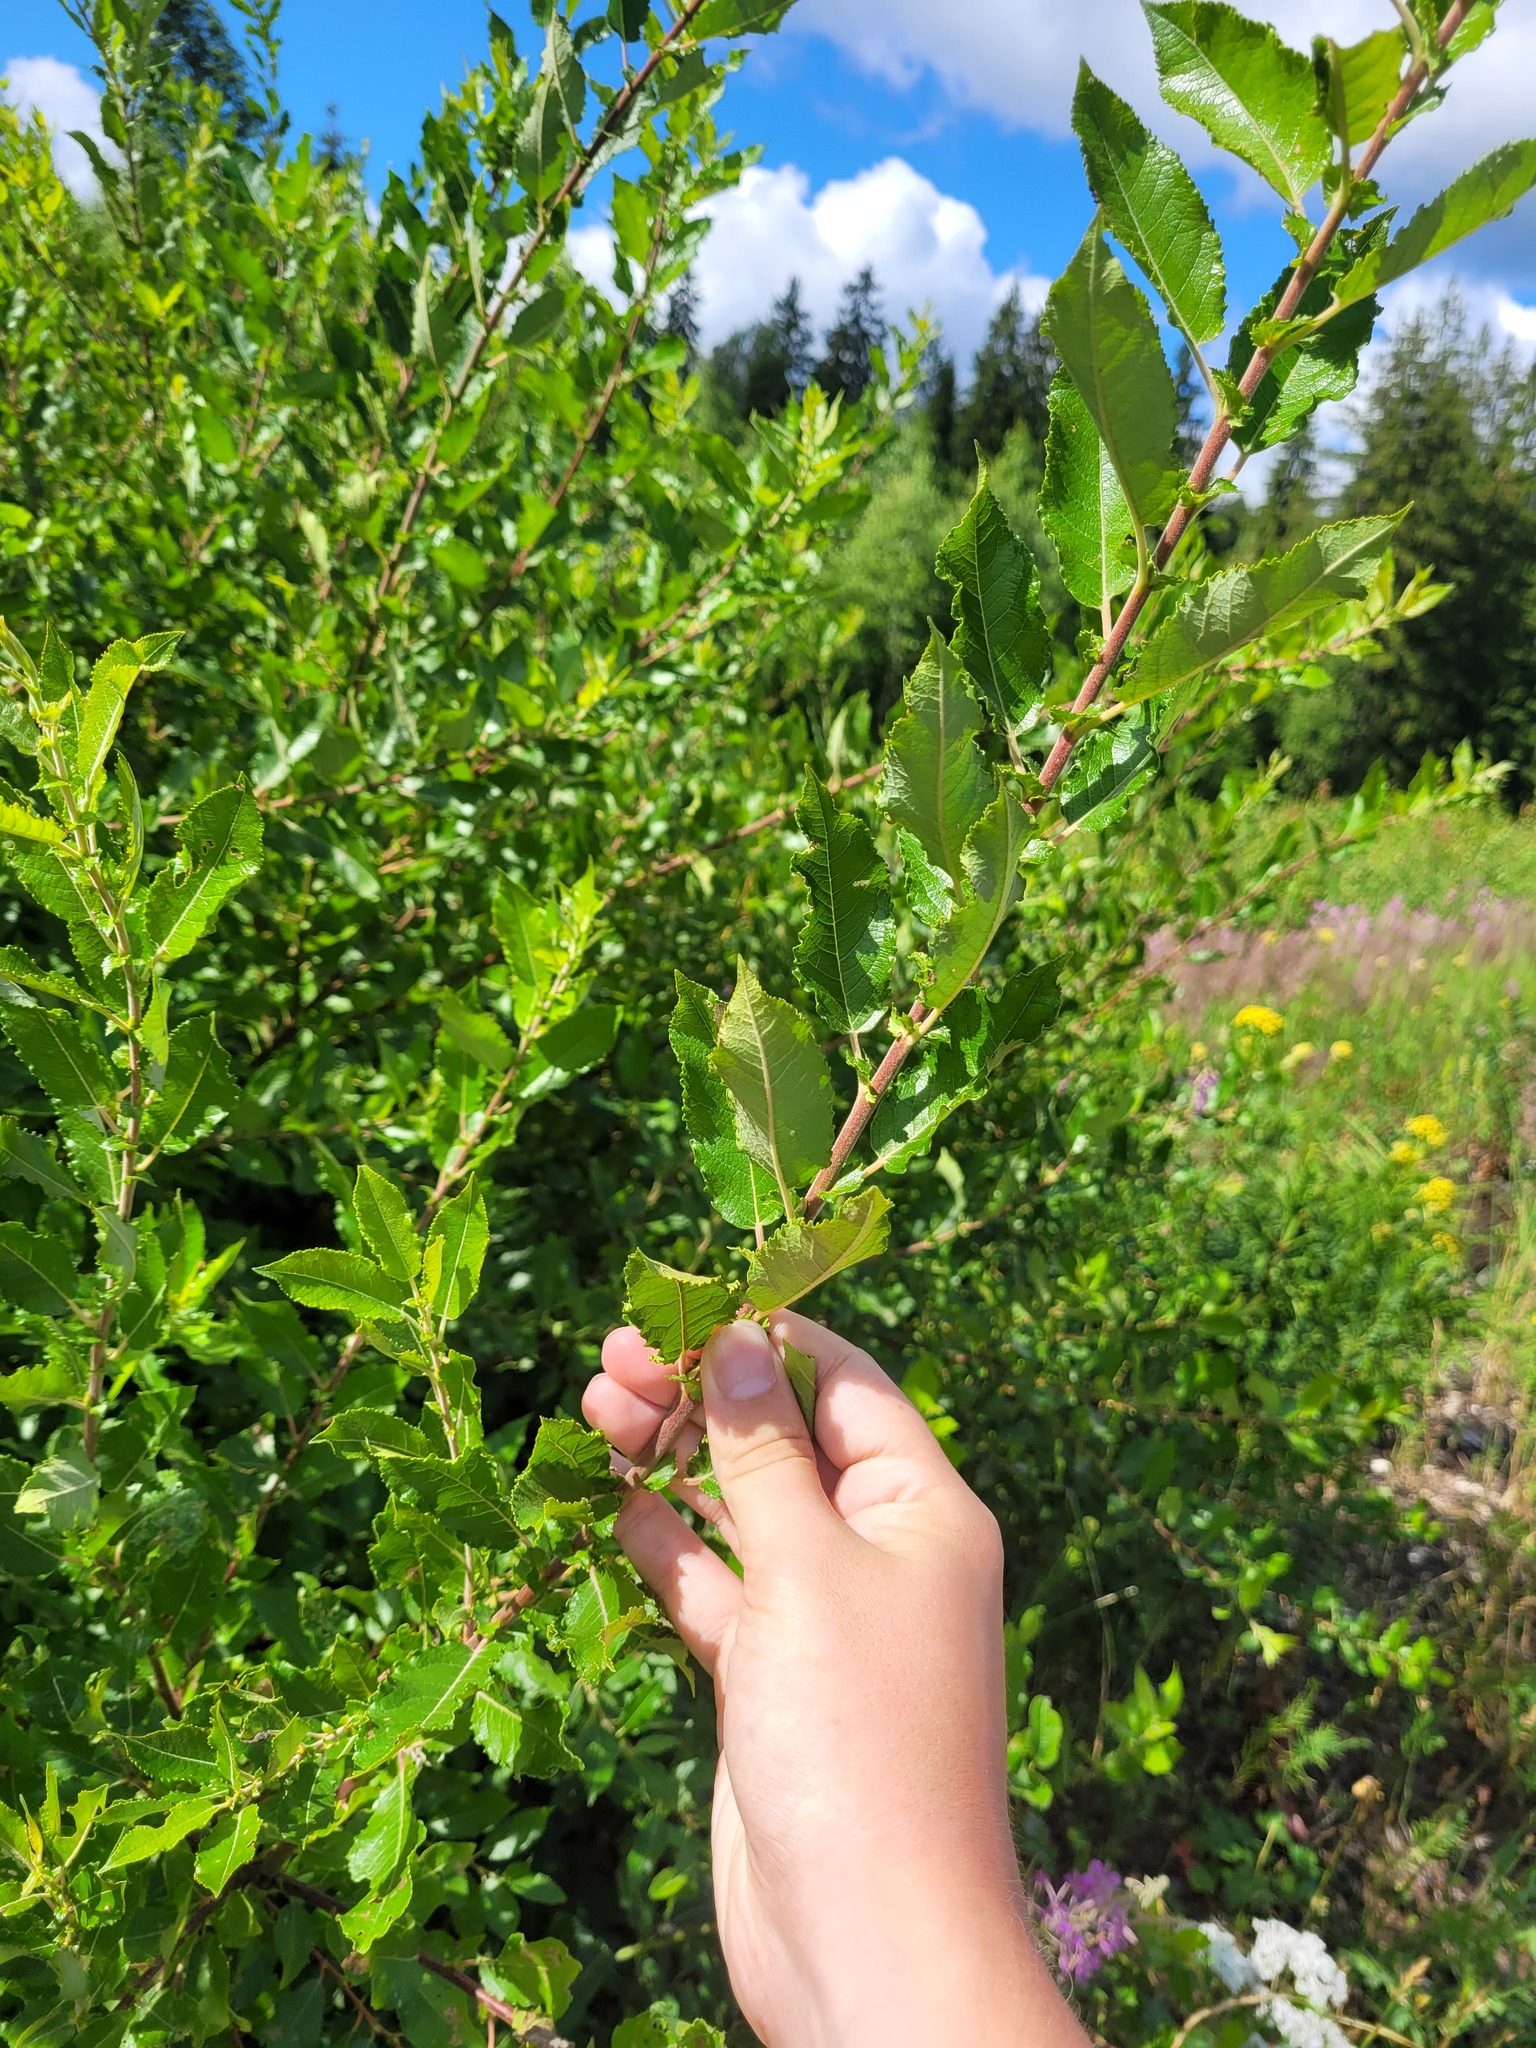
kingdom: Plantae
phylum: Tracheophyta
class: Magnoliopsida
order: Malpighiales
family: Salicaceae
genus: Salix
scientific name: Salix myrsinifolia
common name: Dark-leaved willow
